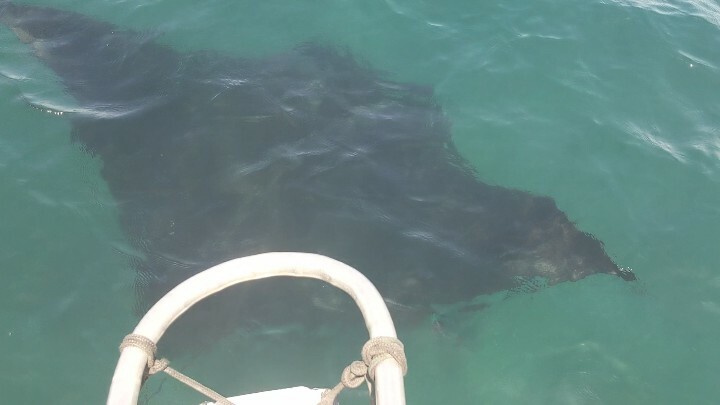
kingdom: Animalia
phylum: Chordata
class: Elasmobranchii
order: Myliobatiformes
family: Myliobatidae
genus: Mobula
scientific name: Mobula birostris
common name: Manta ray
